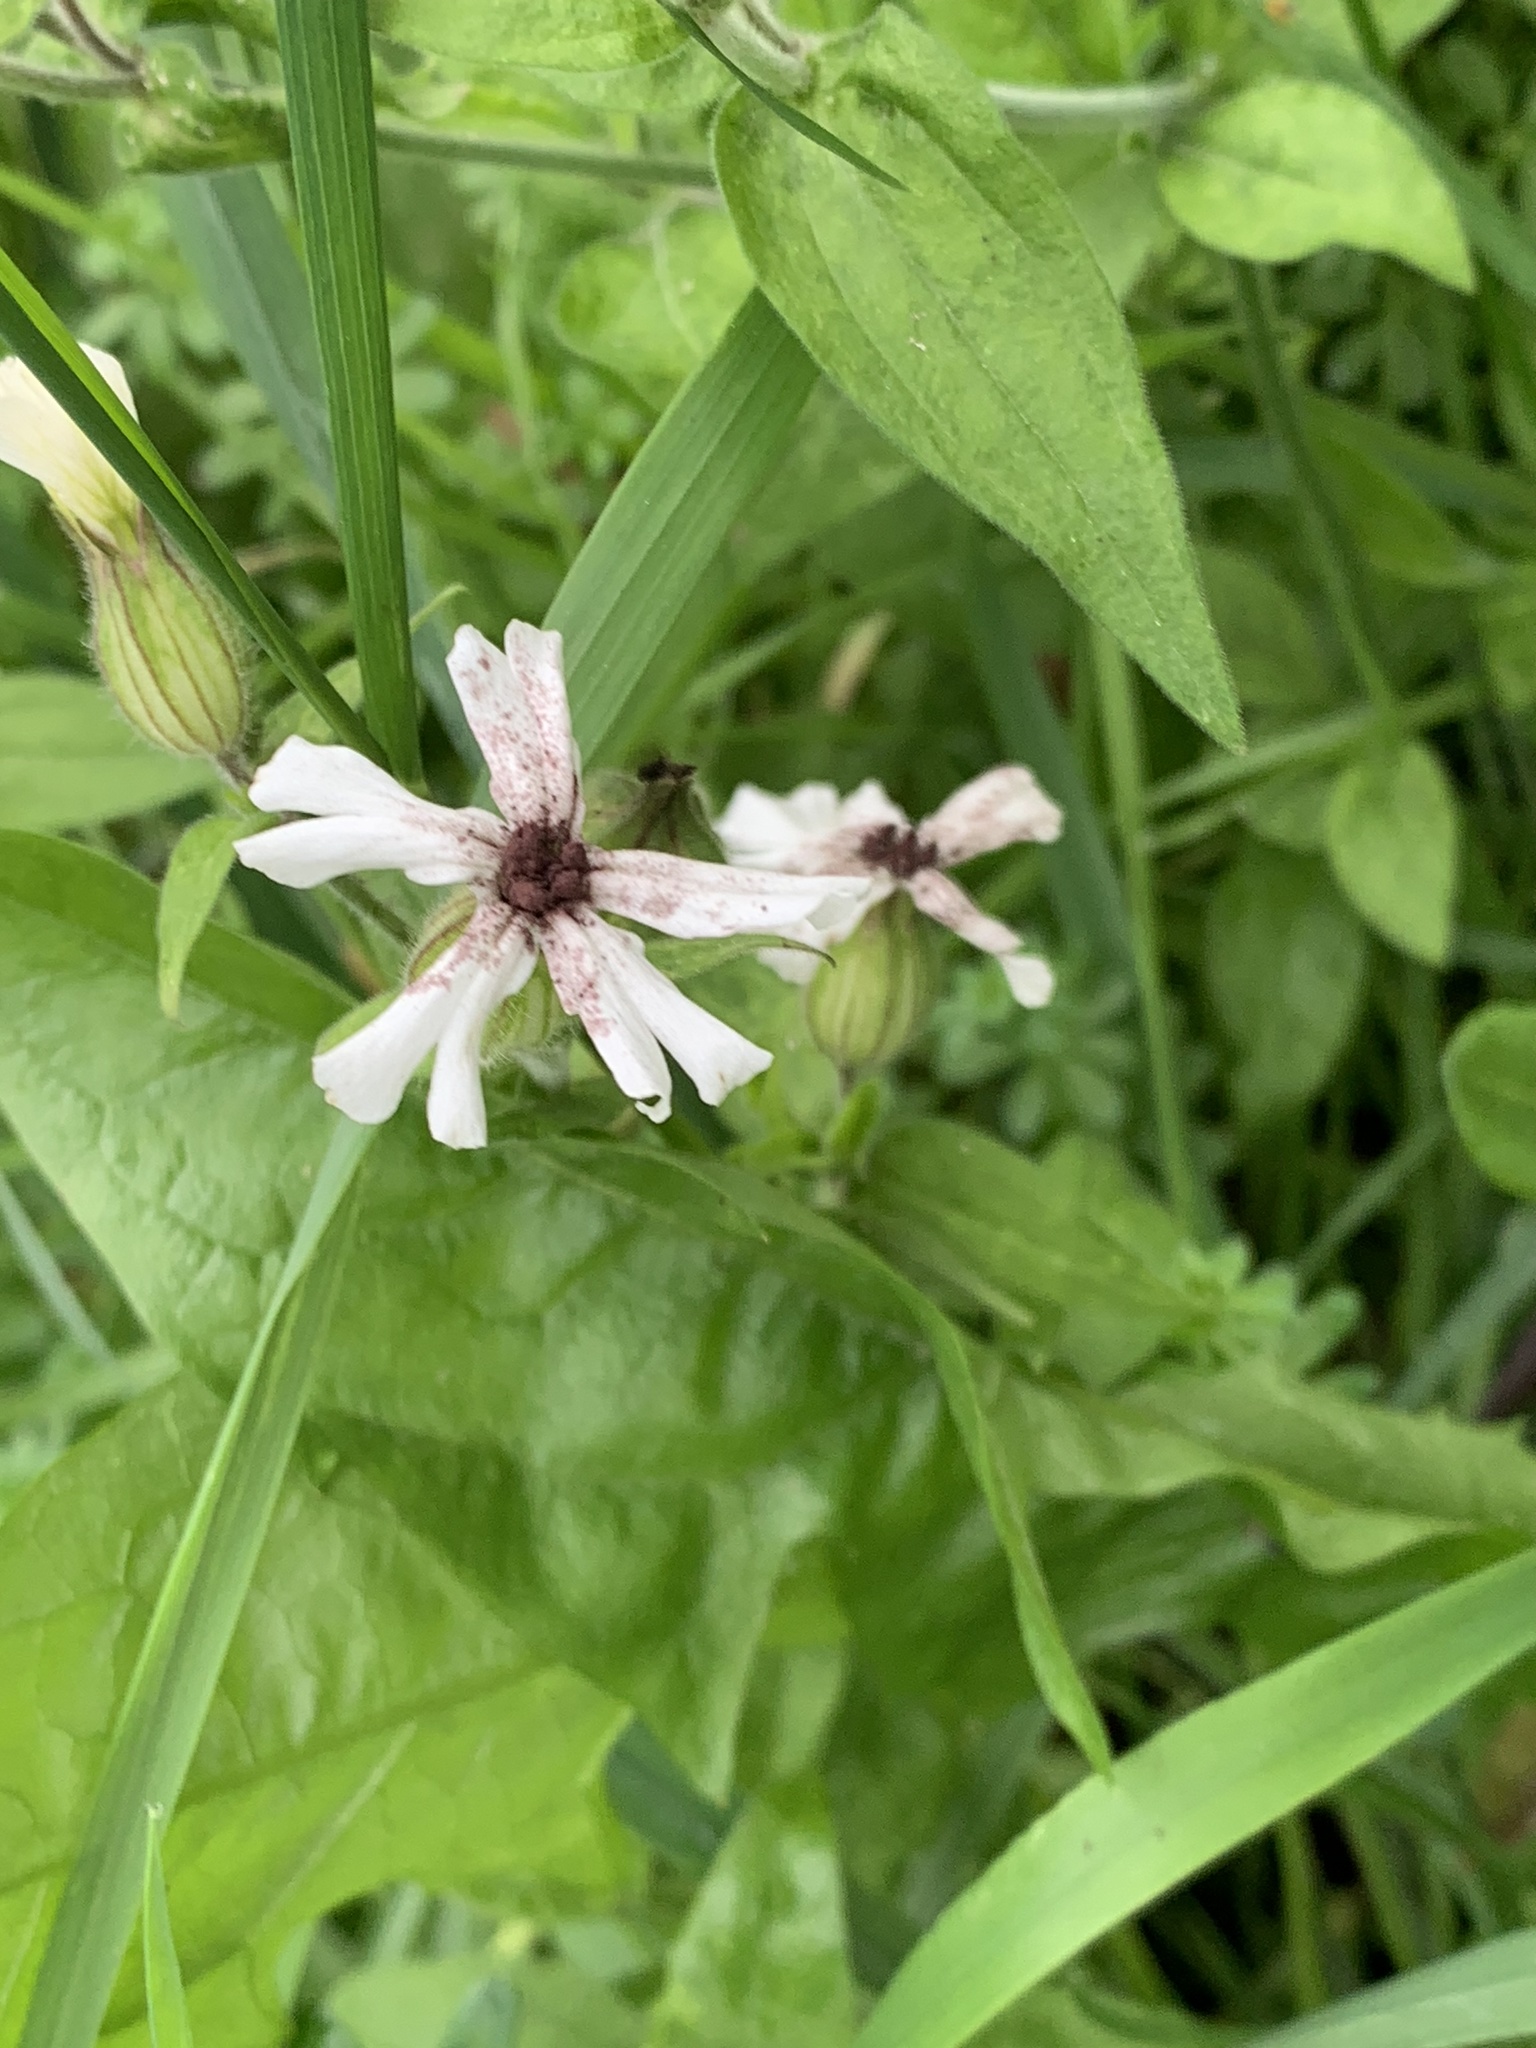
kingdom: Plantae
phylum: Tracheophyta
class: Magnoliopsida
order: Caryophyllales
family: Caryophyllaceae
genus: Silene
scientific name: Silene latifolia
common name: White campion
